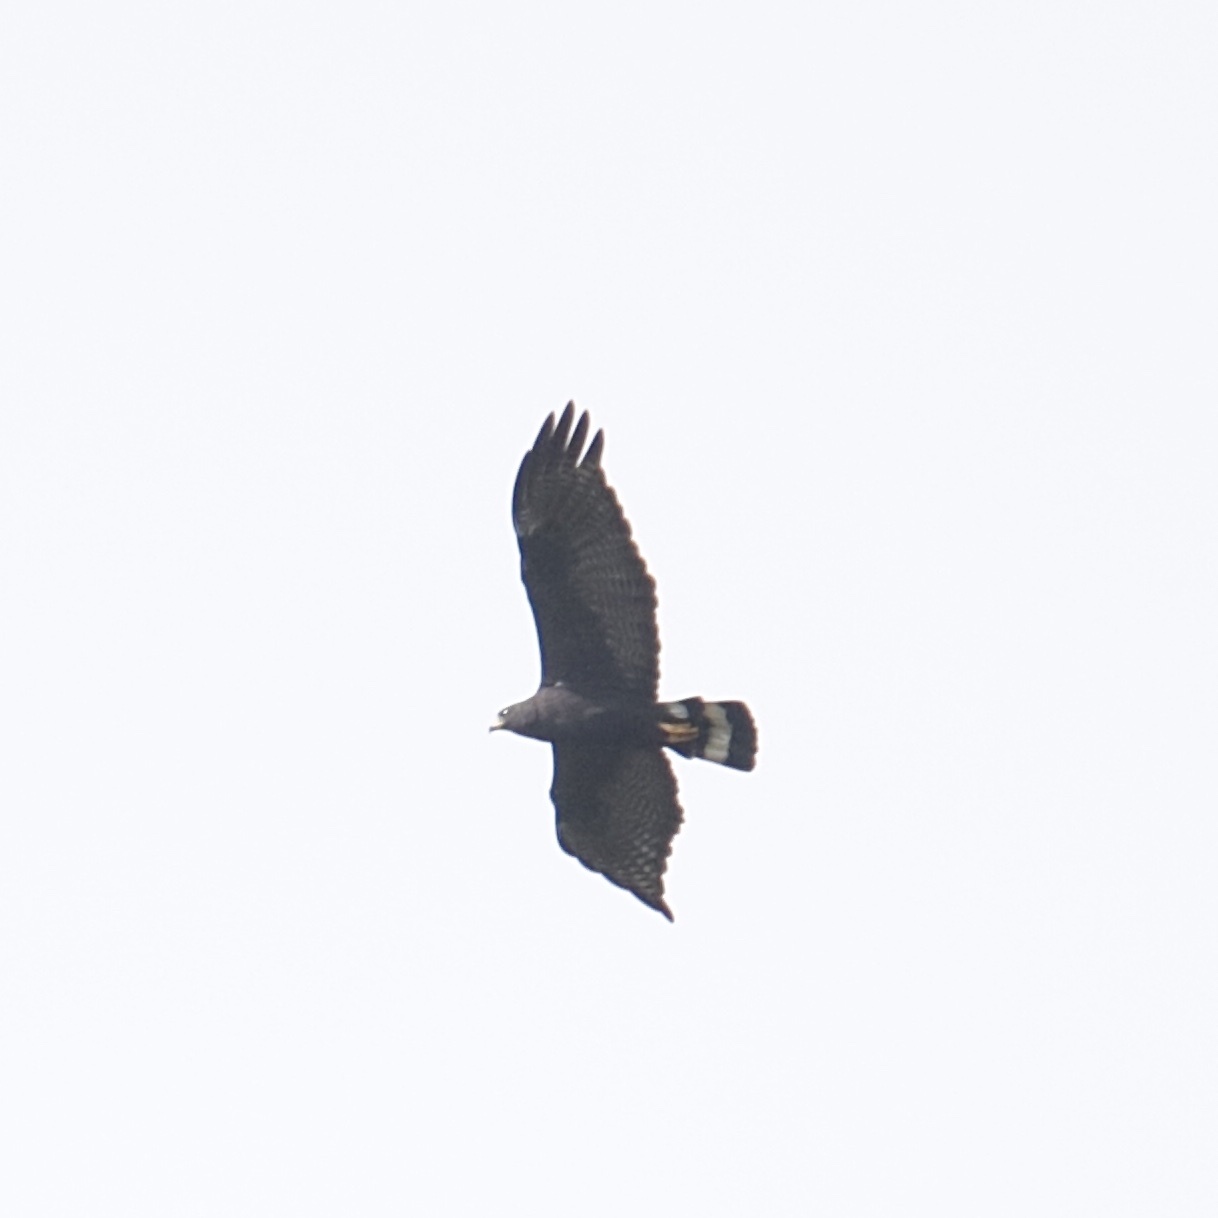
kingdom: Animalia
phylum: Chordata
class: Aves
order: Accipitriformes
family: Accipitridae
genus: Buteo
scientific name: Buteo albonotatus
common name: Zone-tailed hawk
